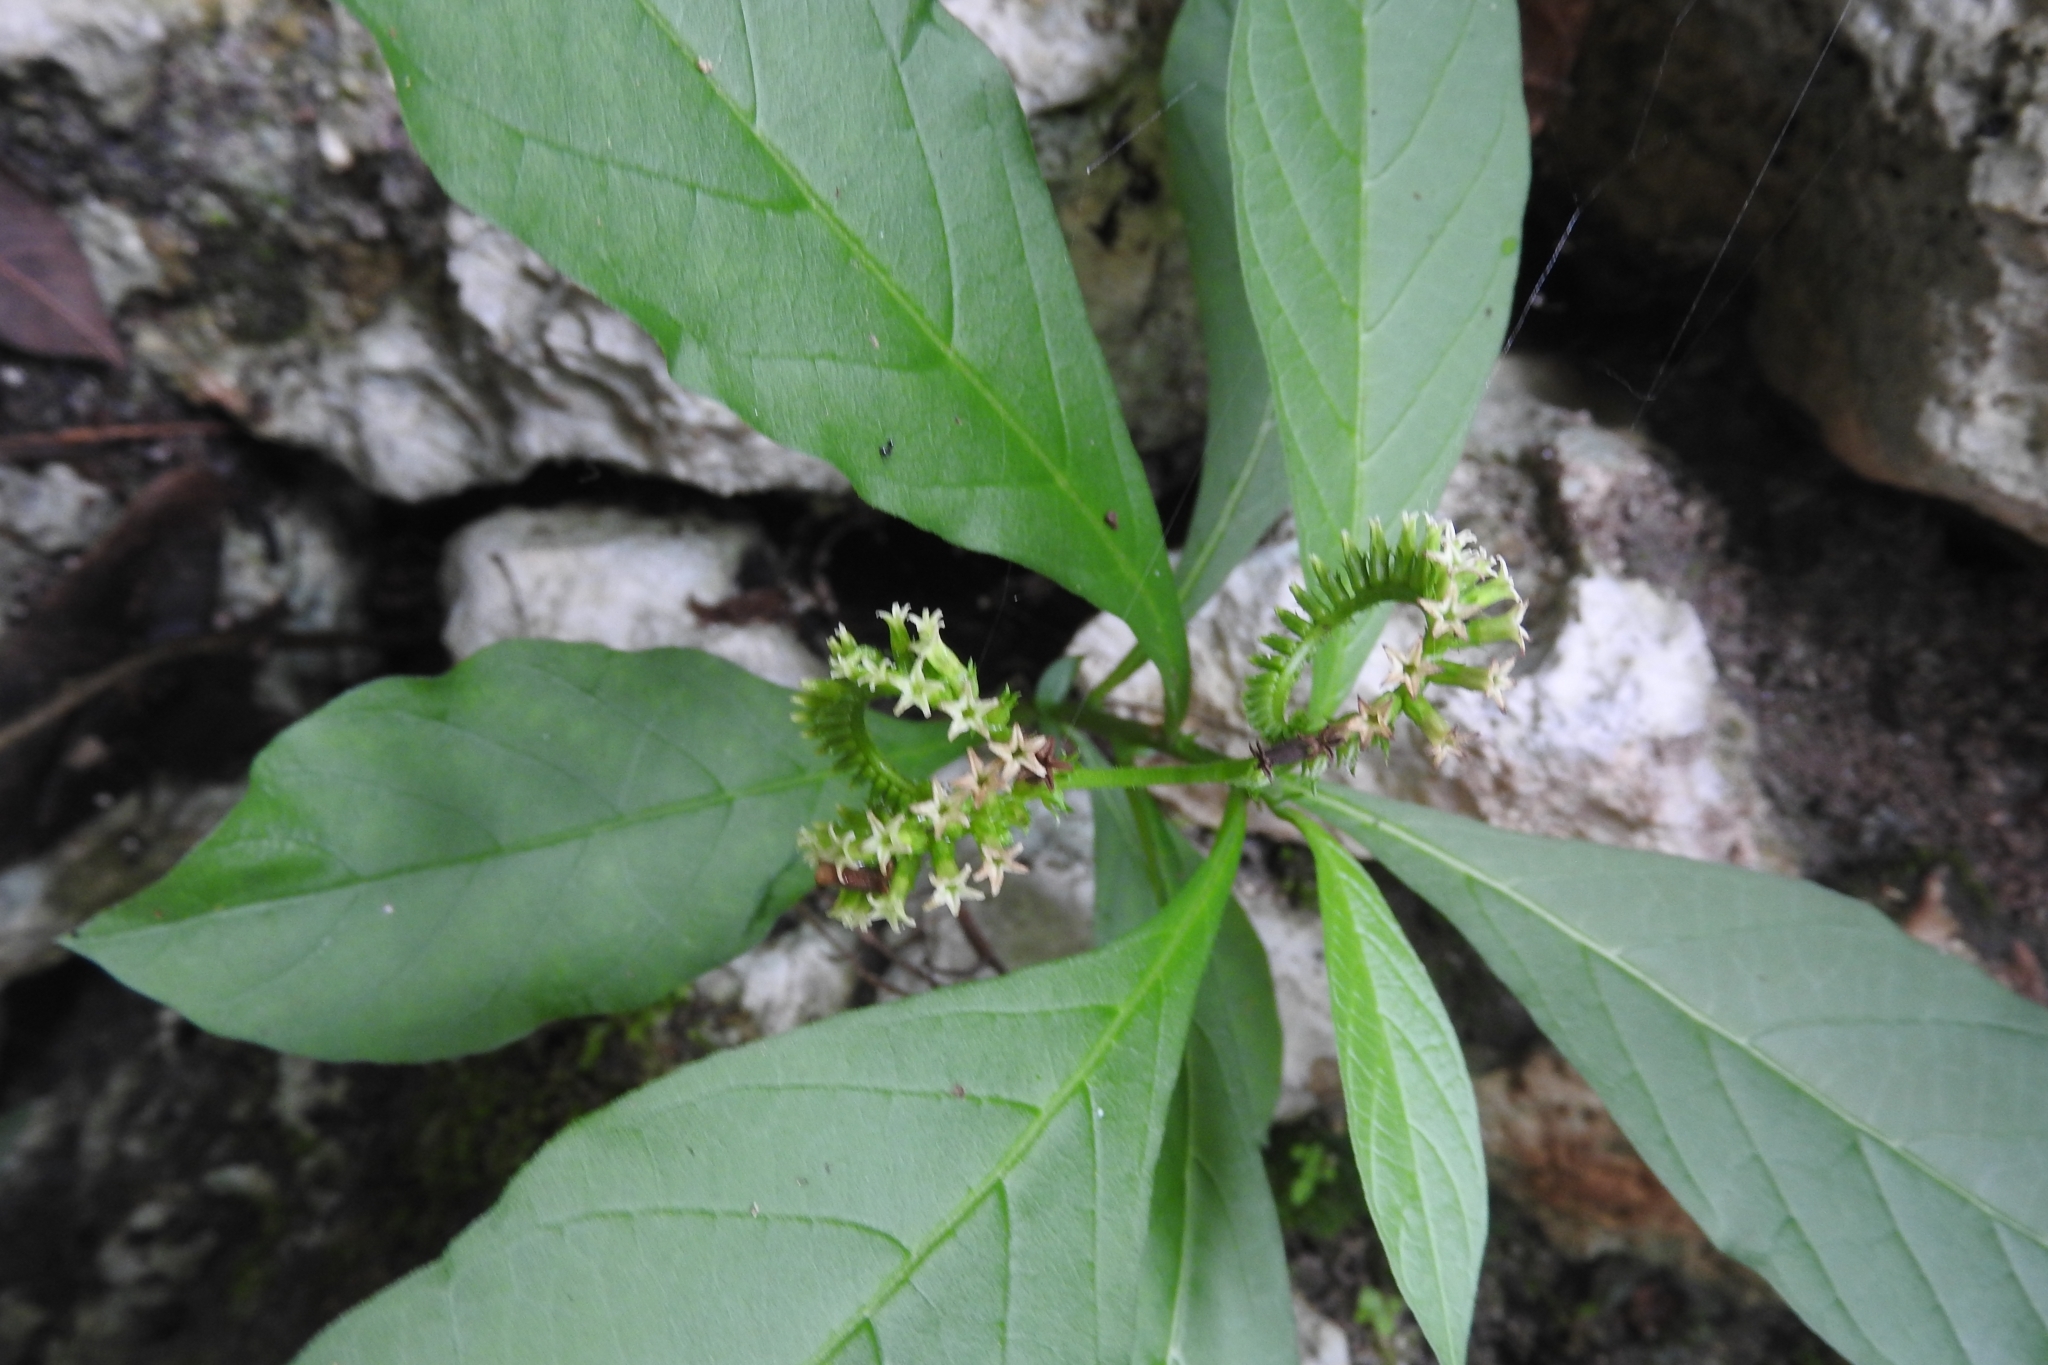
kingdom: Plantae
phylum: Tracheophyta
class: Magnoliopsida
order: Boraginales
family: Heliotropiaceae
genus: Heliotropium
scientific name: Heliotropium angiospermum
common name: Eye bright
